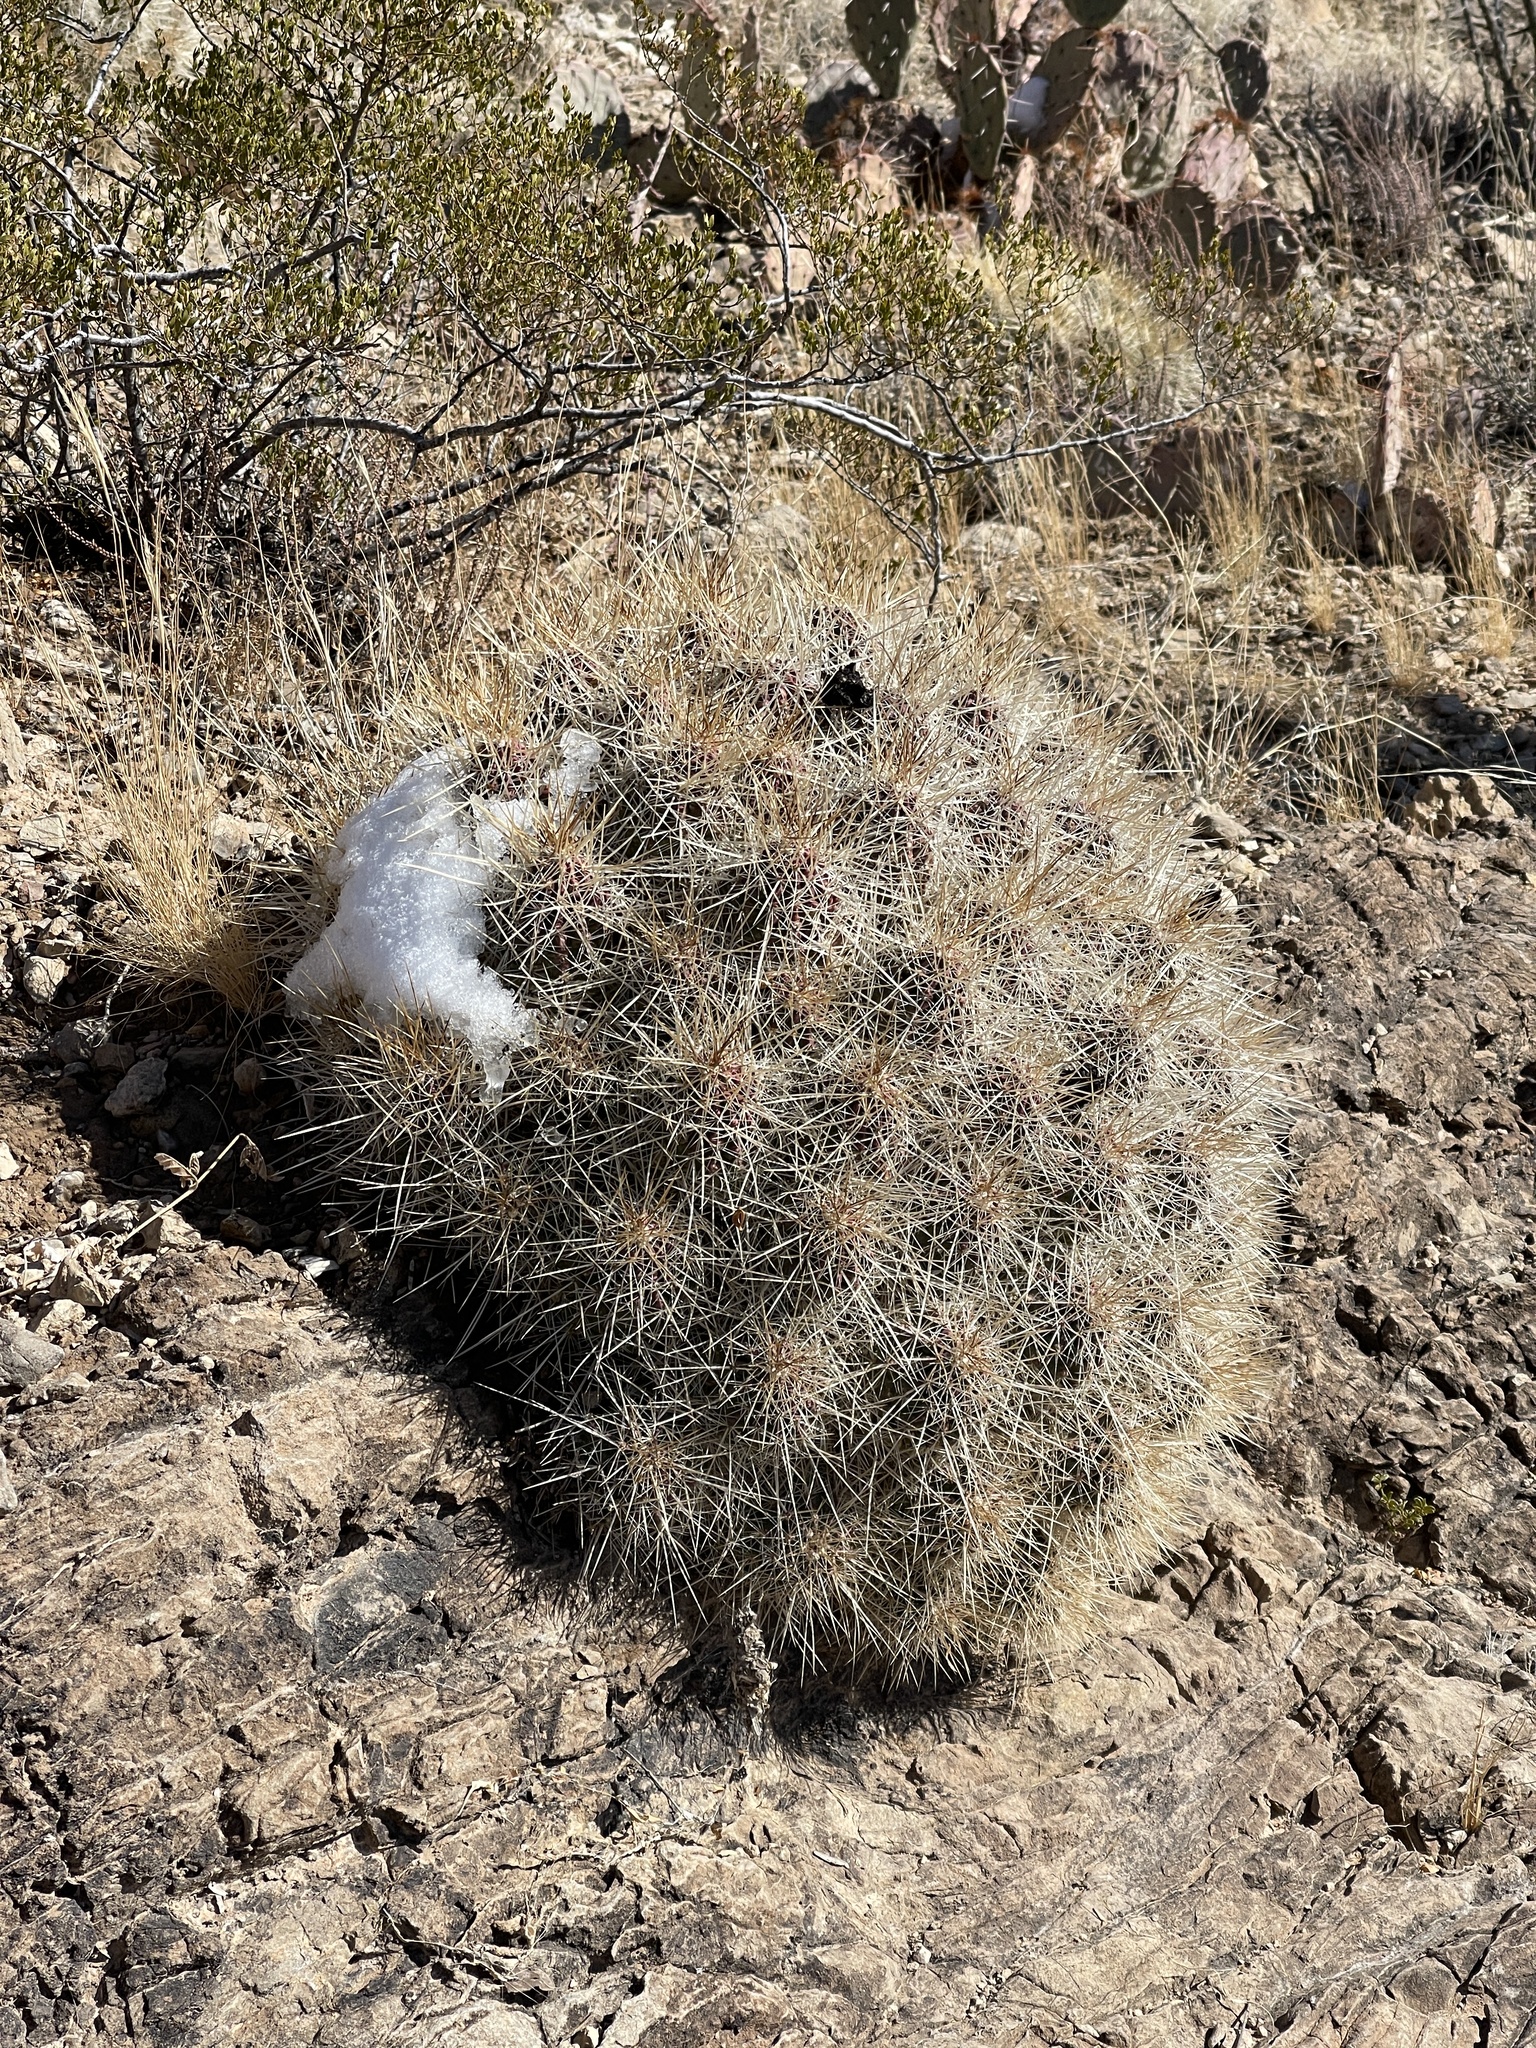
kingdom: Plantae
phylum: Tracheophyta
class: Magnoliopsida
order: Caryophyllales
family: Cactaceae
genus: Echinocereus
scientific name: Echinocereus stramineus
